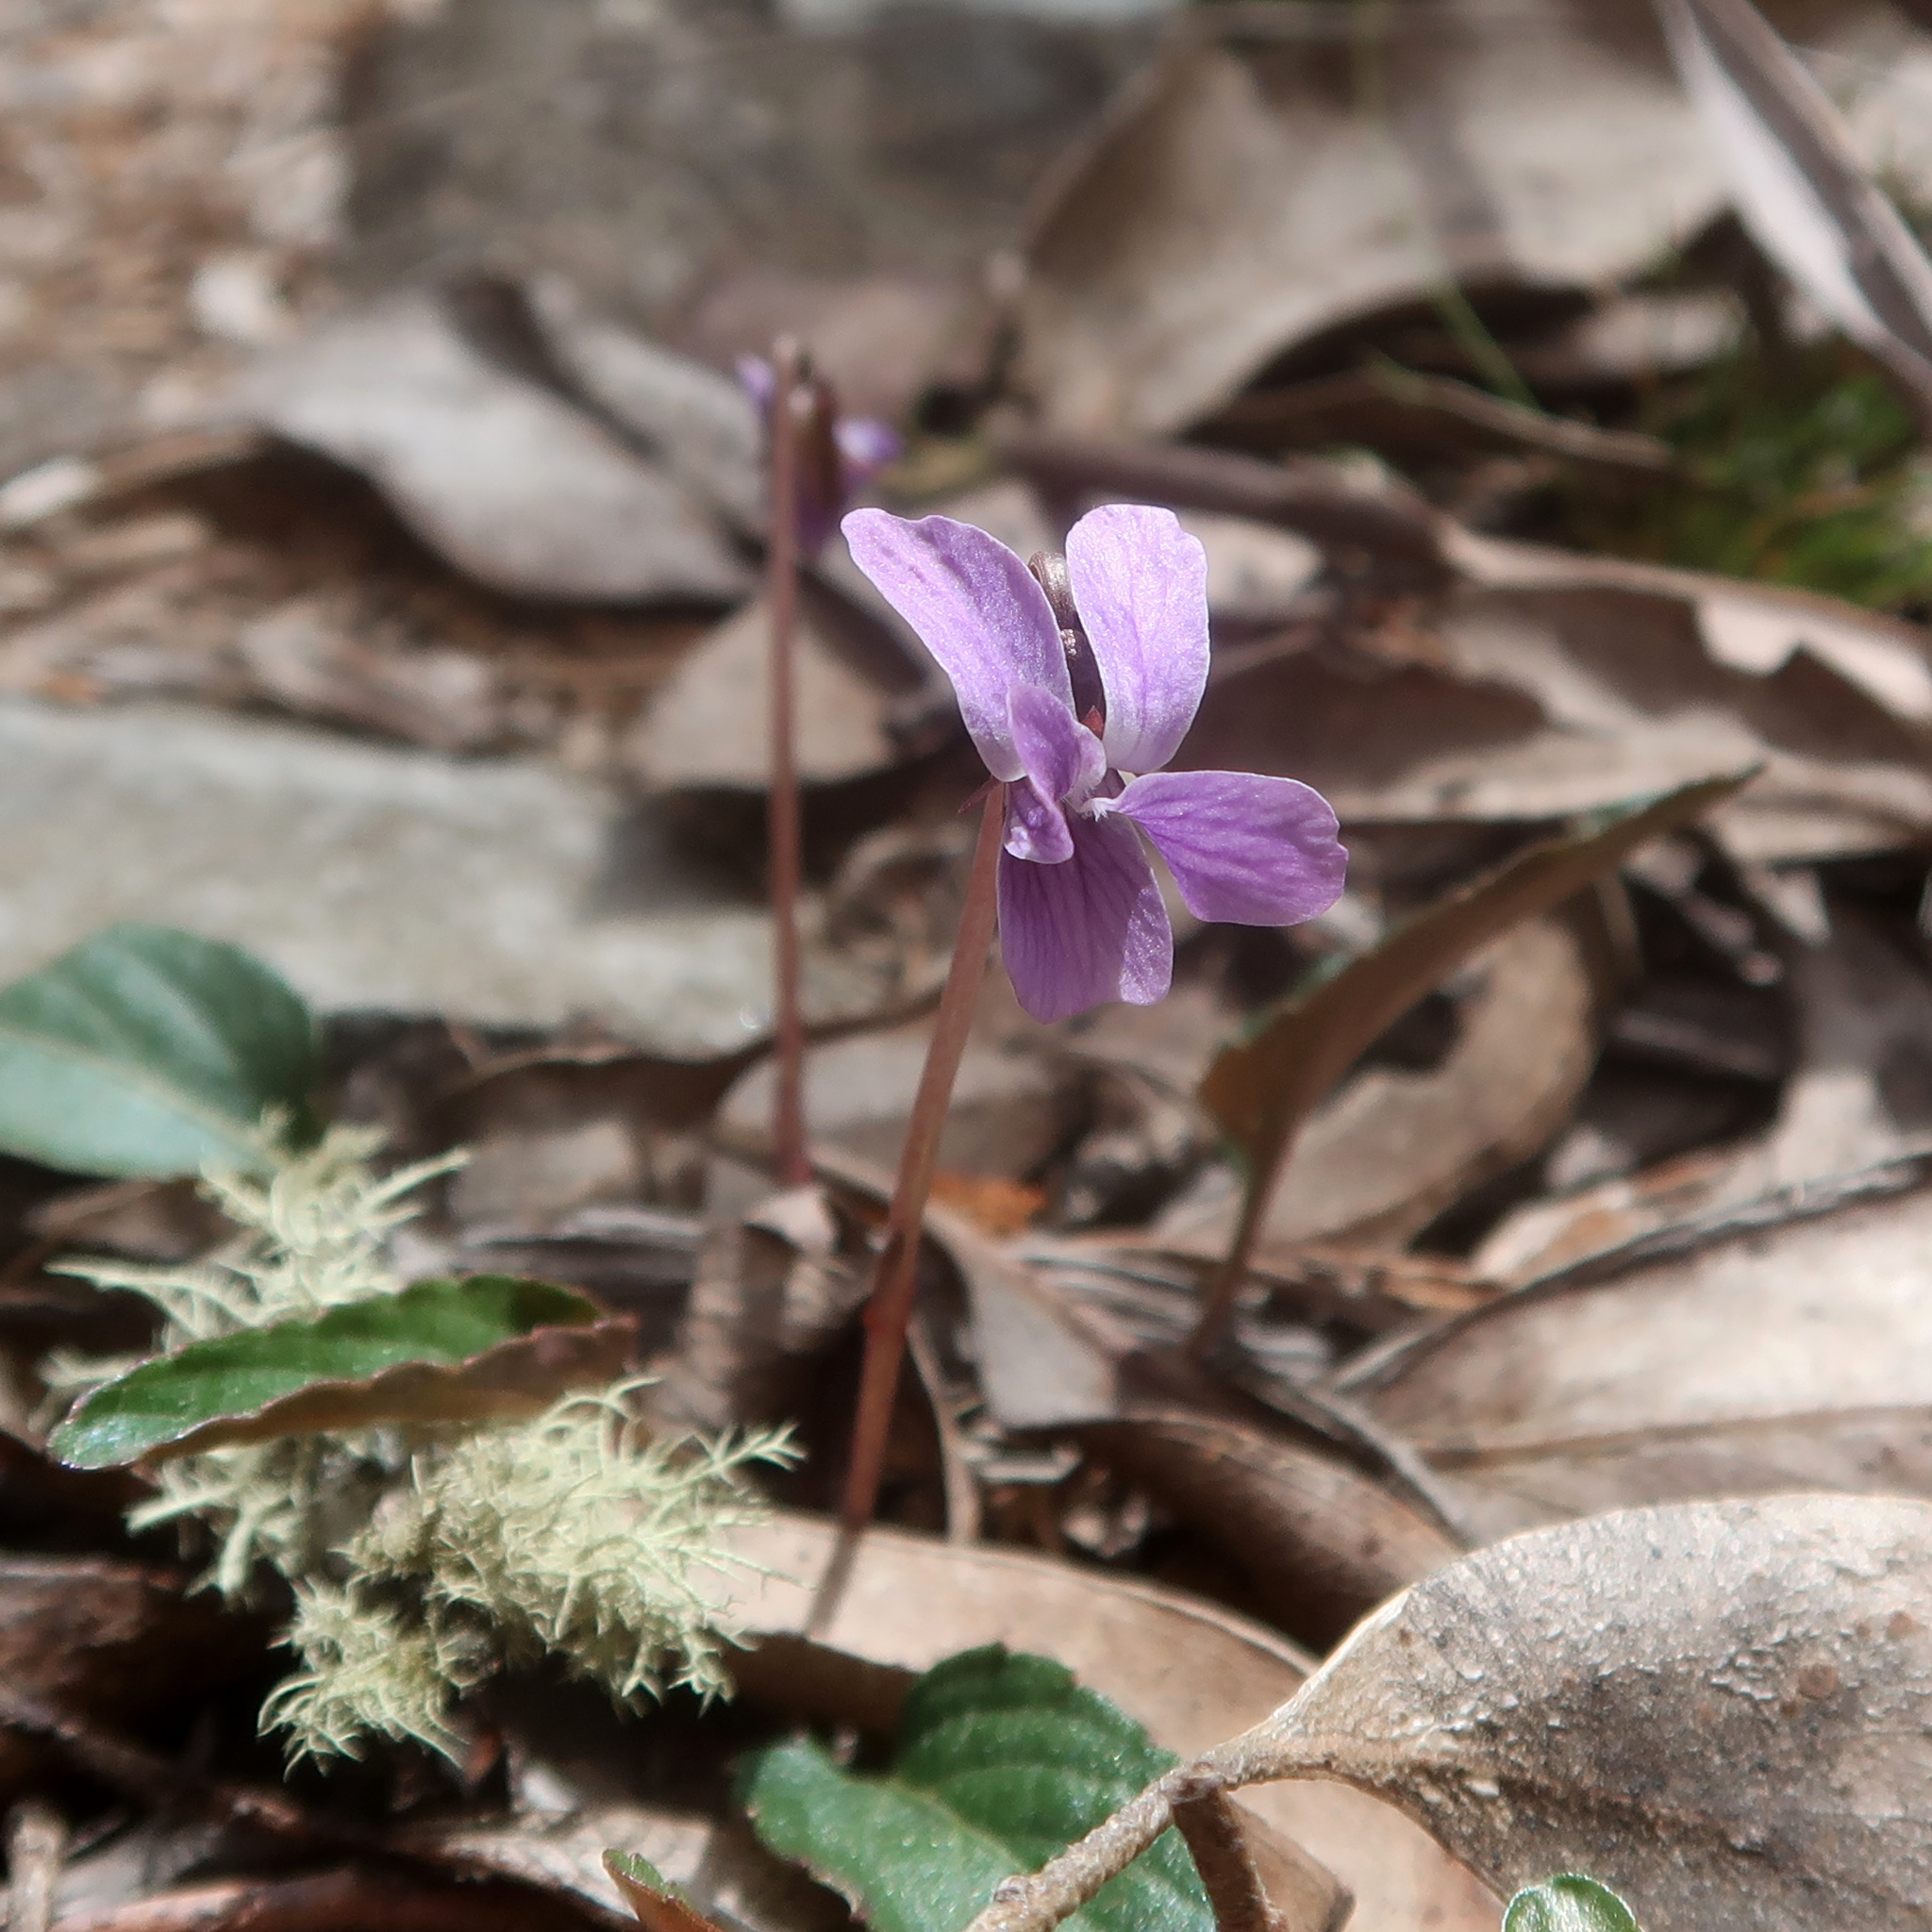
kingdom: Plantae
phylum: Tracheophyta
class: Magnoliopsida
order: Malpighiales
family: Violaceae
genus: Viola
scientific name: Viola betonicifolia
